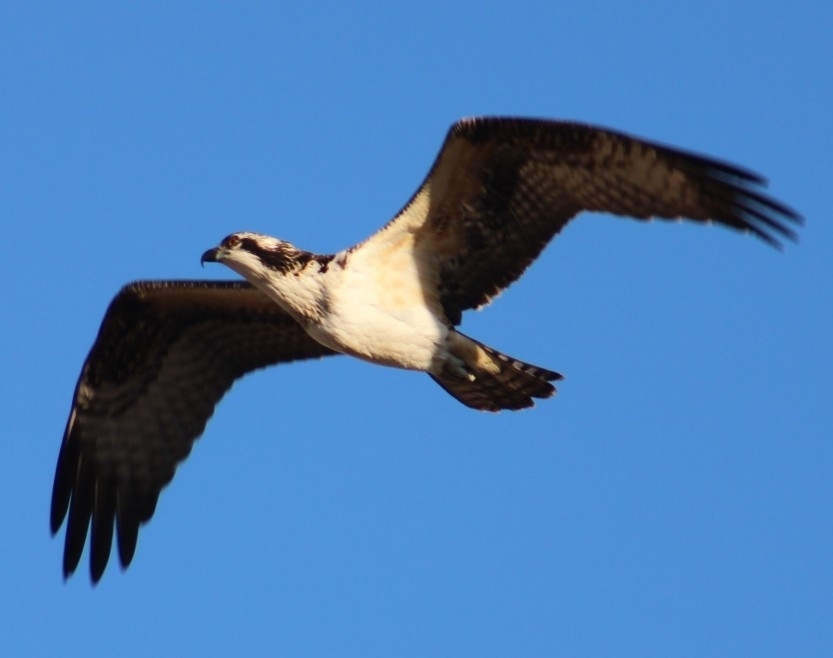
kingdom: Animalia
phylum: Chordata
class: Aves
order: Accipitriformes
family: Pandionidae
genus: Pandion
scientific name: Pandion haliaetus
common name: Osprey
